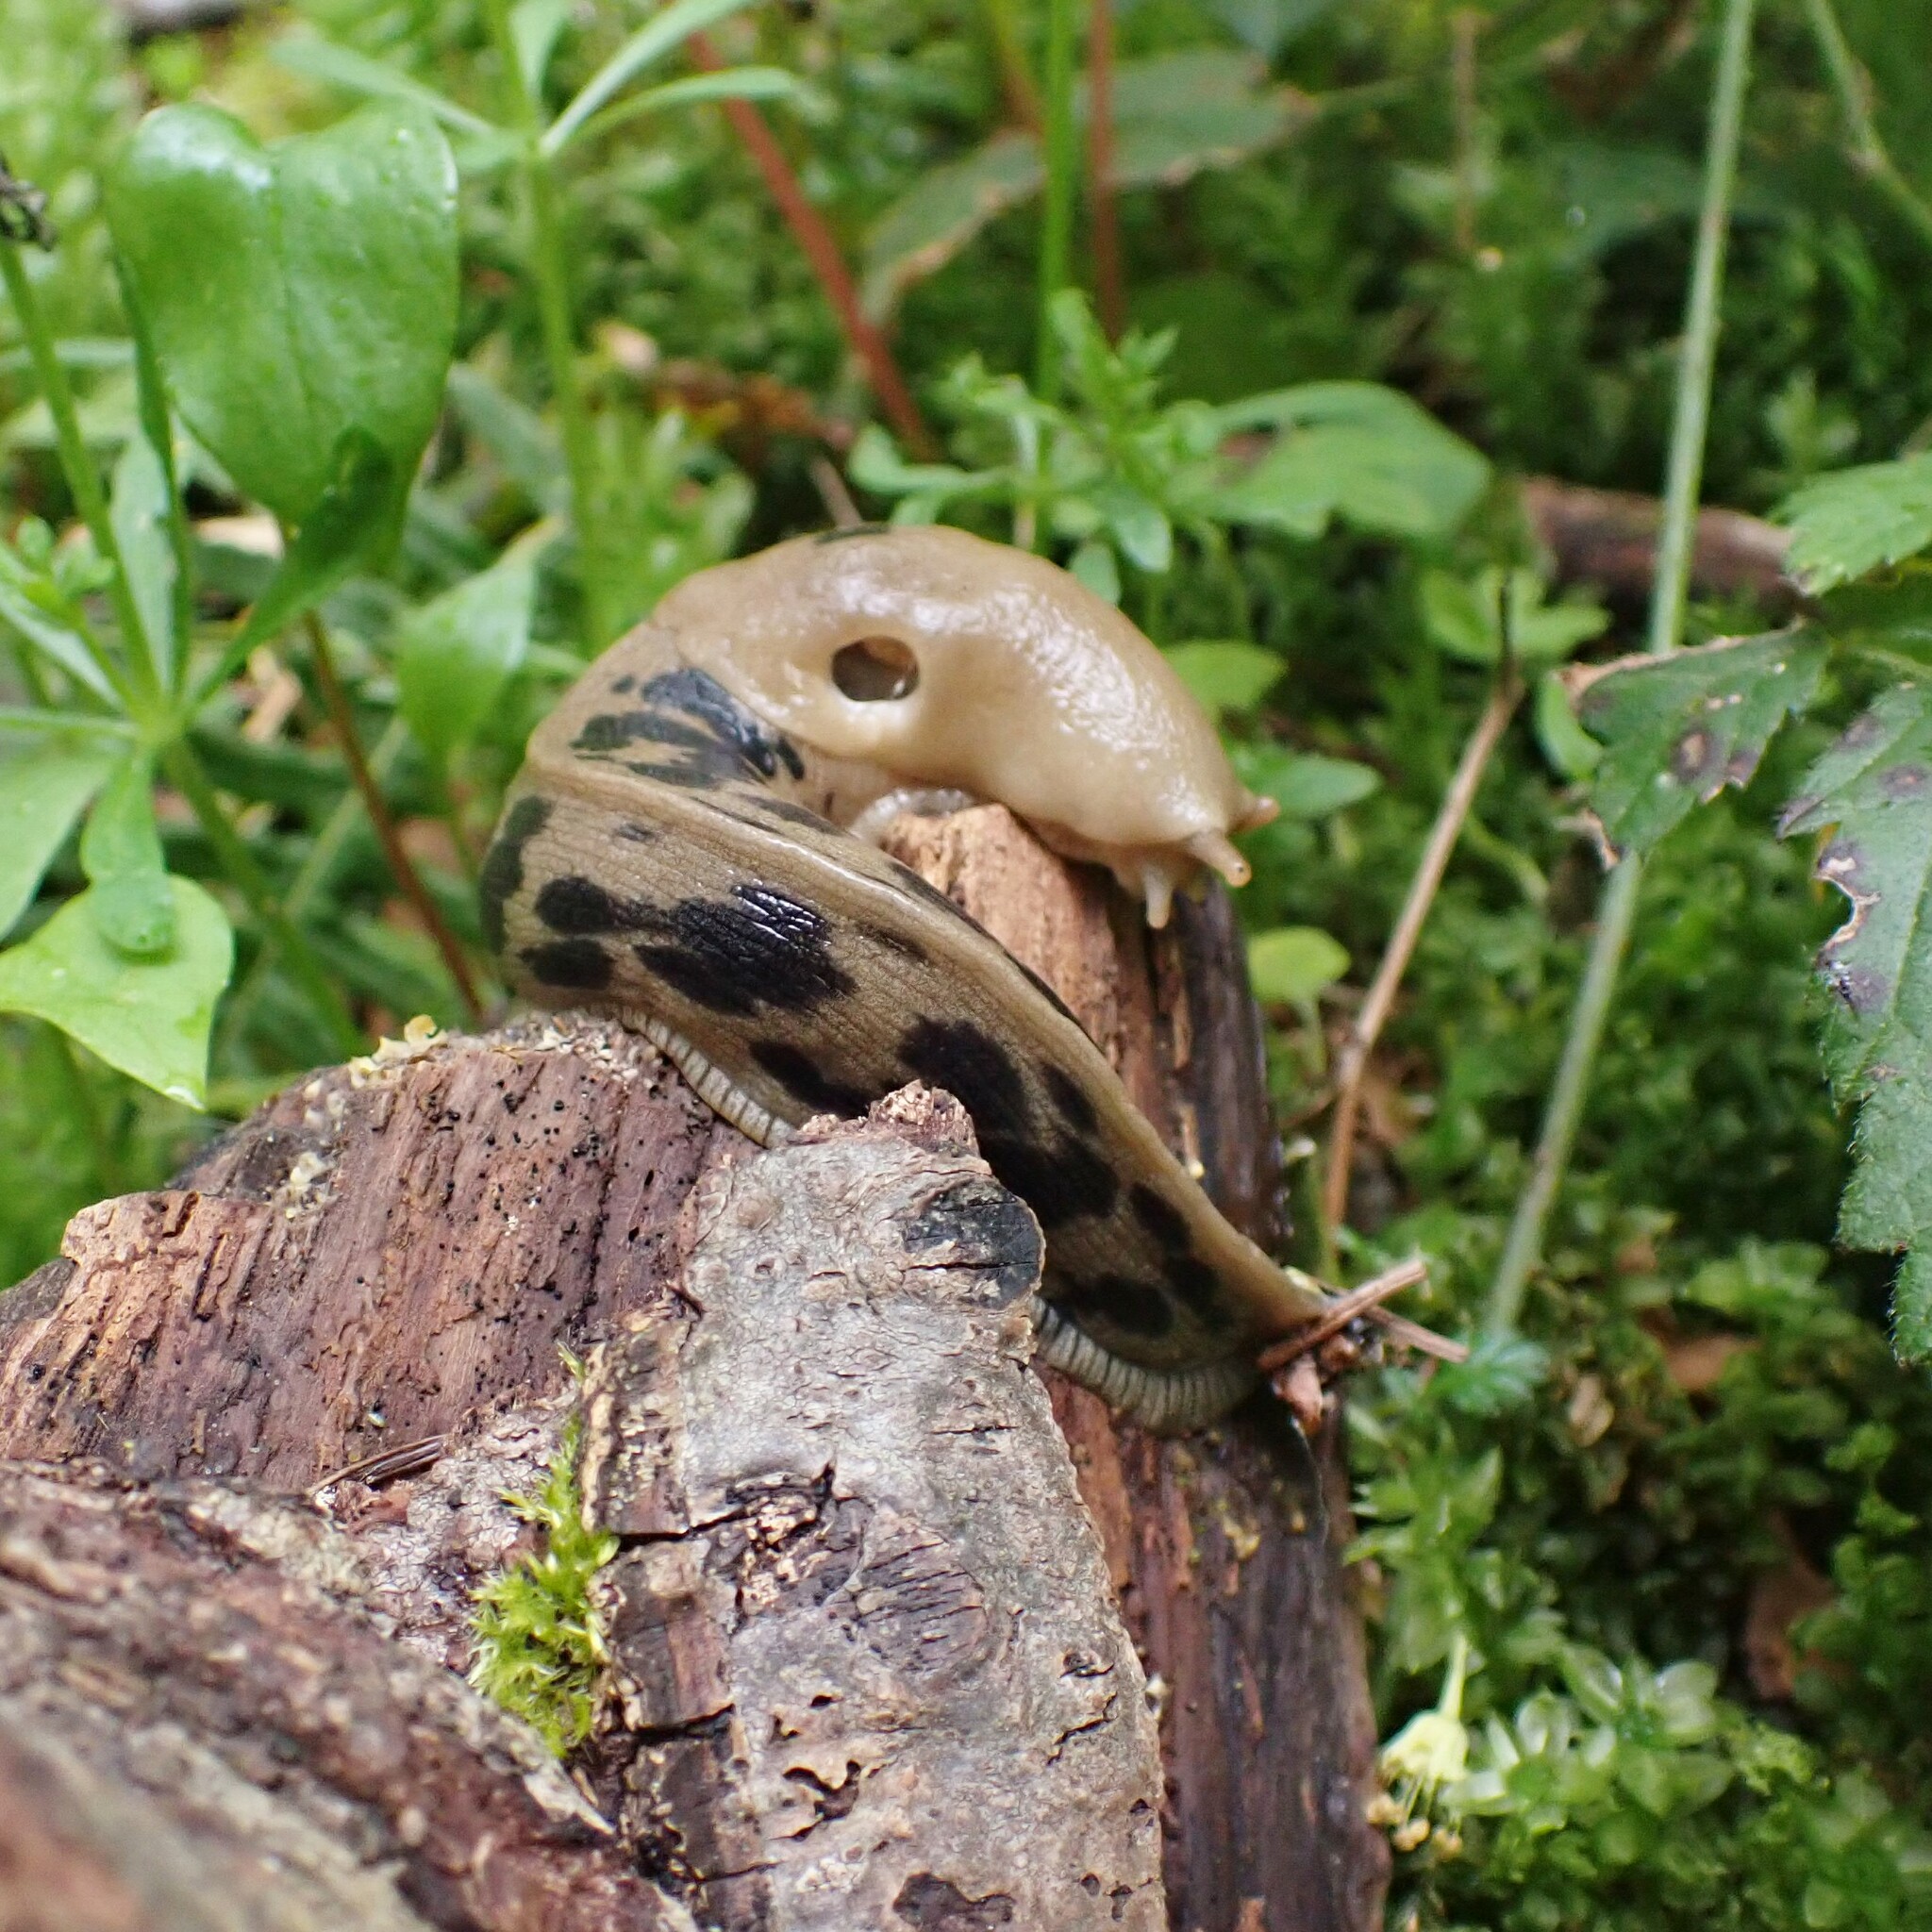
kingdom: Animalia
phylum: Mollusca
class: Gastropoda
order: Stylommatophora
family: Ariolimacidae
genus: Ariolimax
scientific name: Ariolimax columbianus
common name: Pacific banana slug
